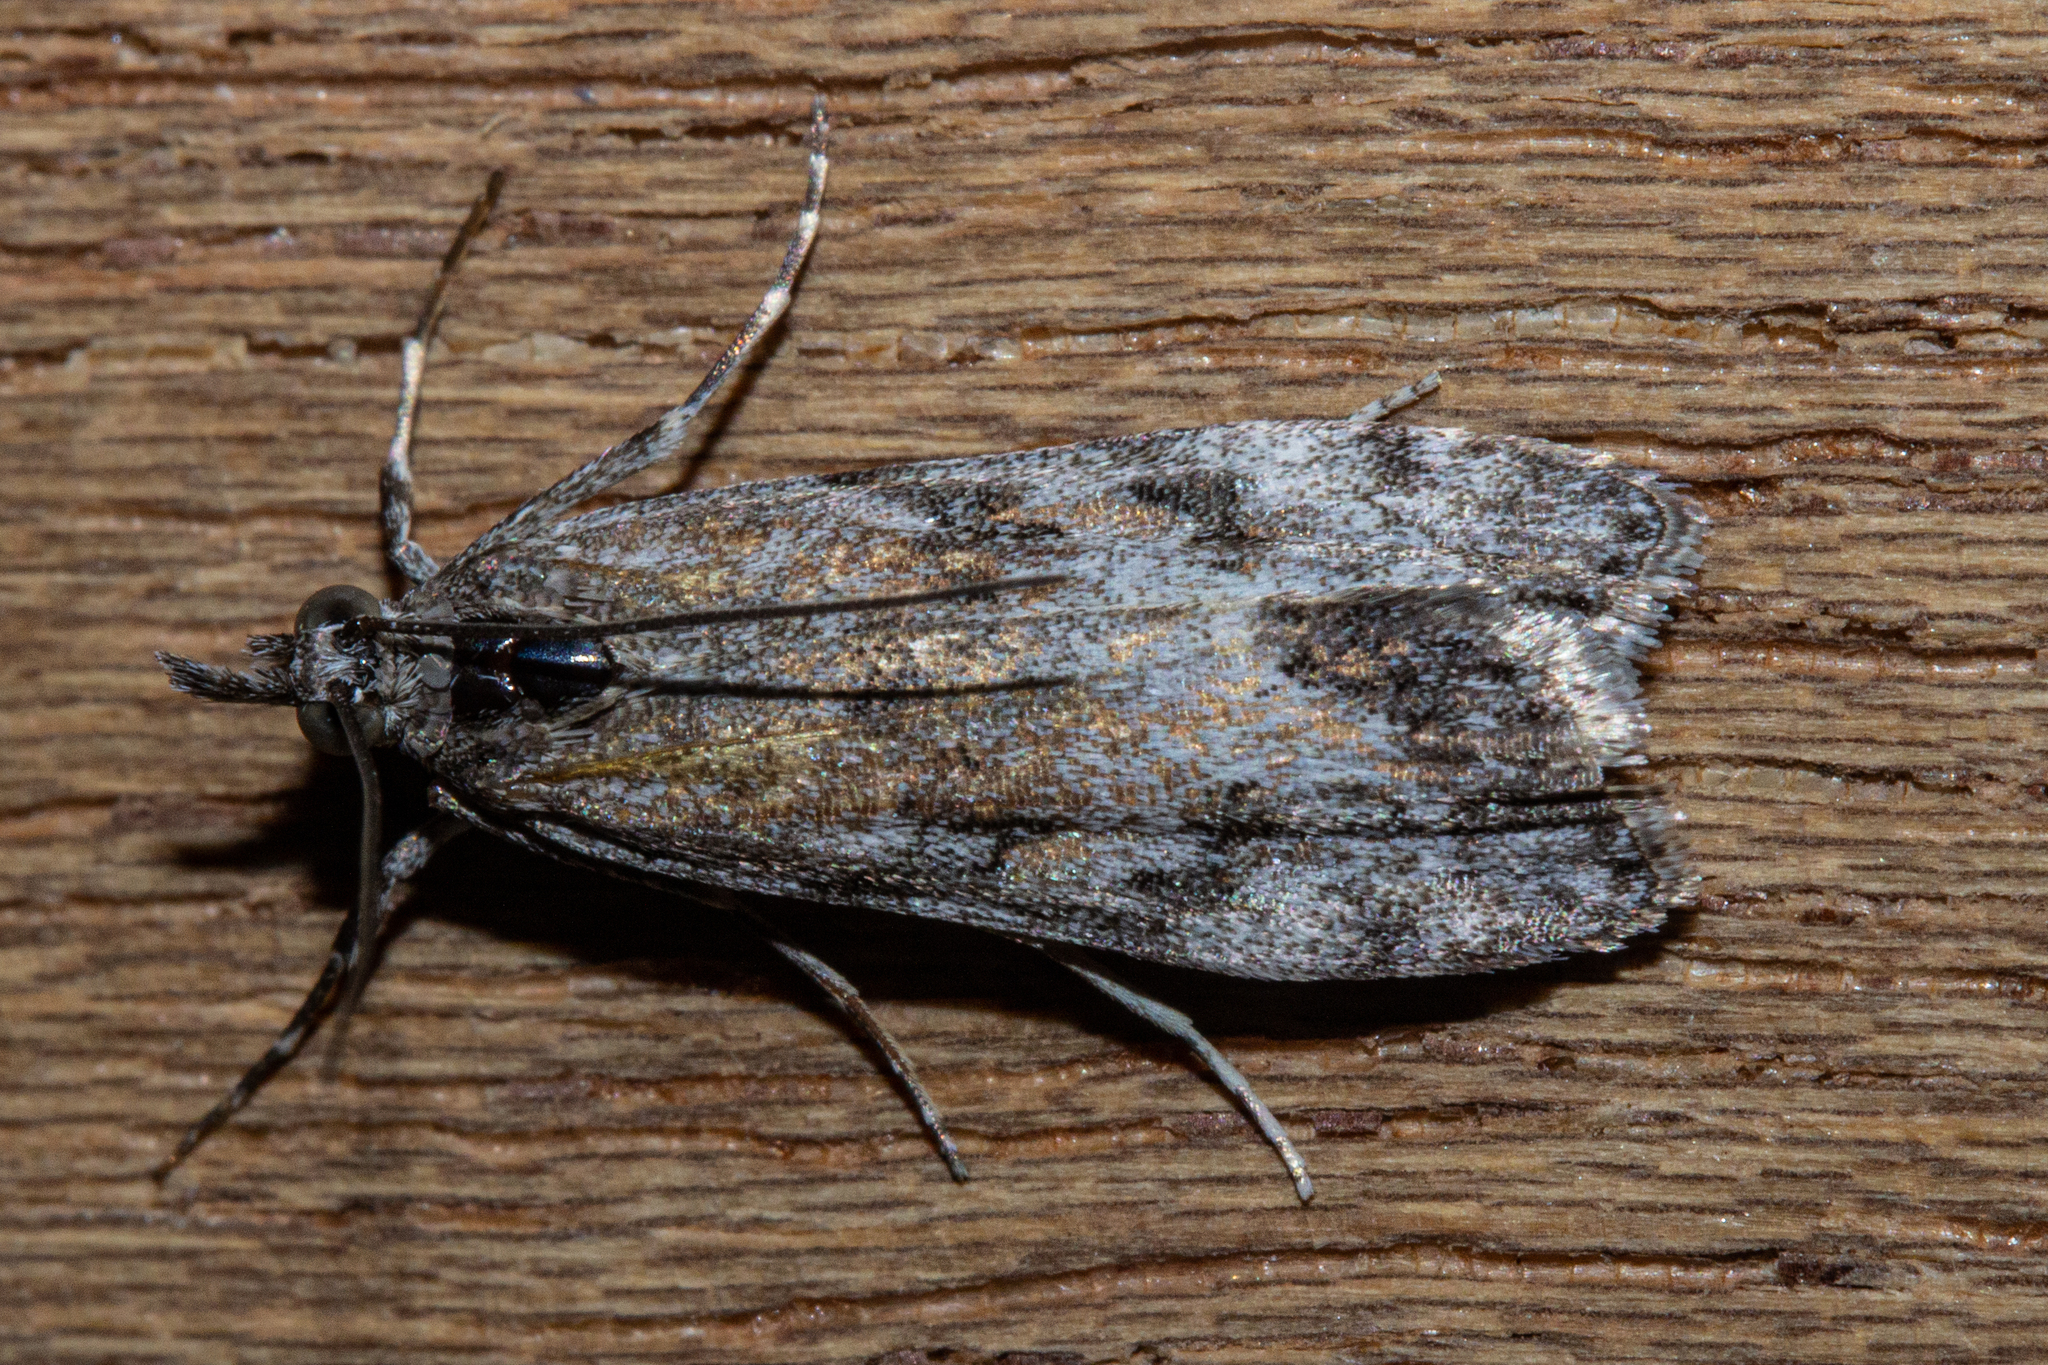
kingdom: Animalia
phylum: Arthropoda
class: Insecta
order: Lepidoptera
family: Crambidae
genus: Scoparia
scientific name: Scoparia halopis
